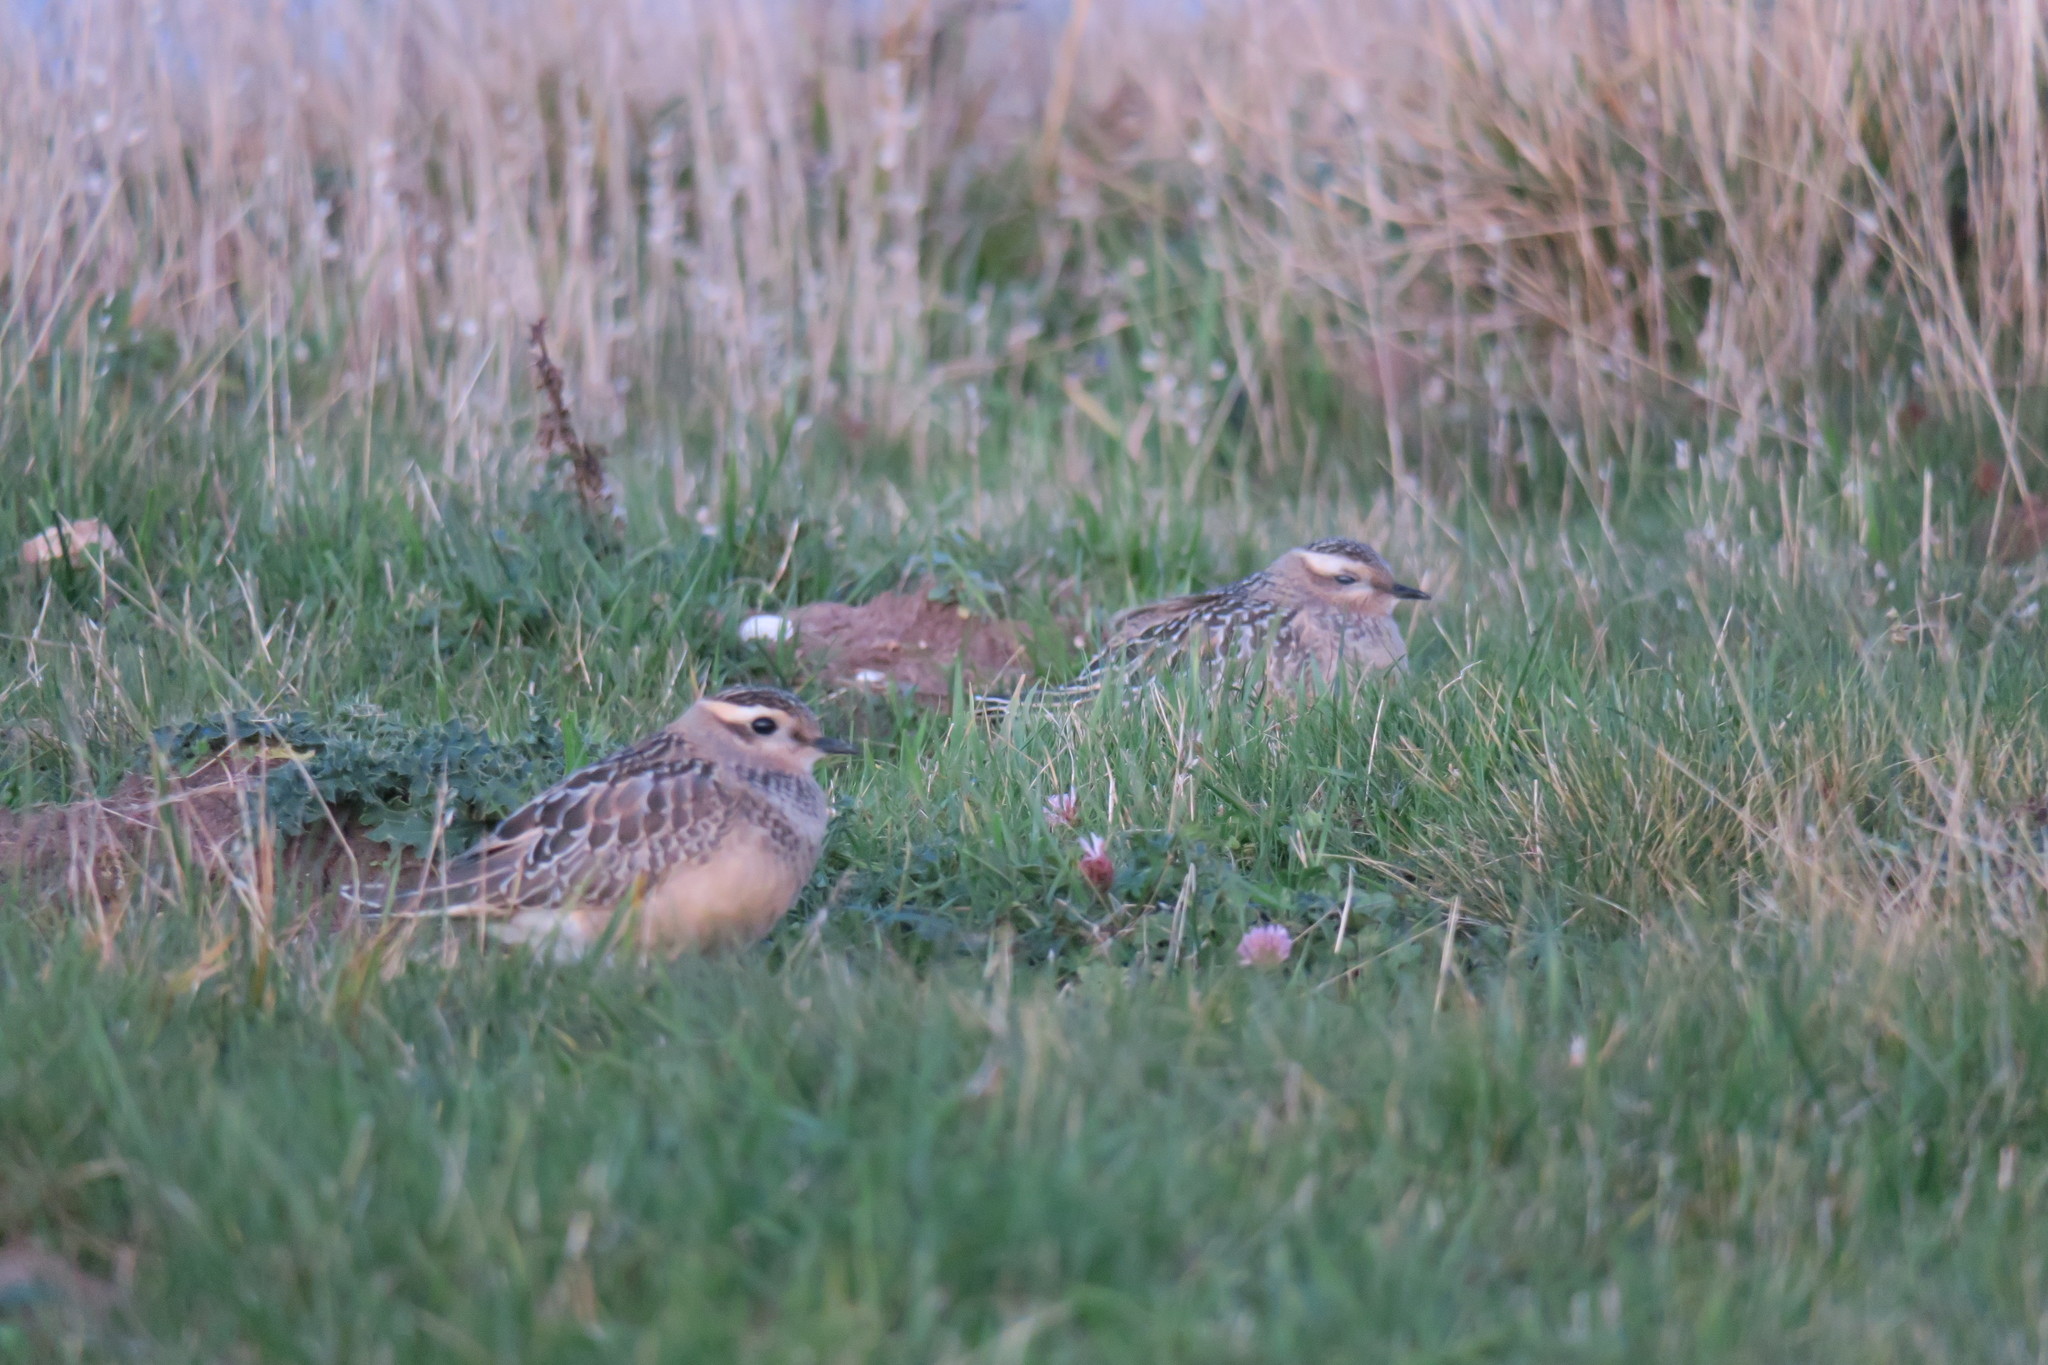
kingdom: Animalia
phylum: Chordata
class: Aves
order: Charadriiformes
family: Charadriidae
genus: Charadrius
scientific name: Charadrius morinellus
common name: Eurasian dotterel
